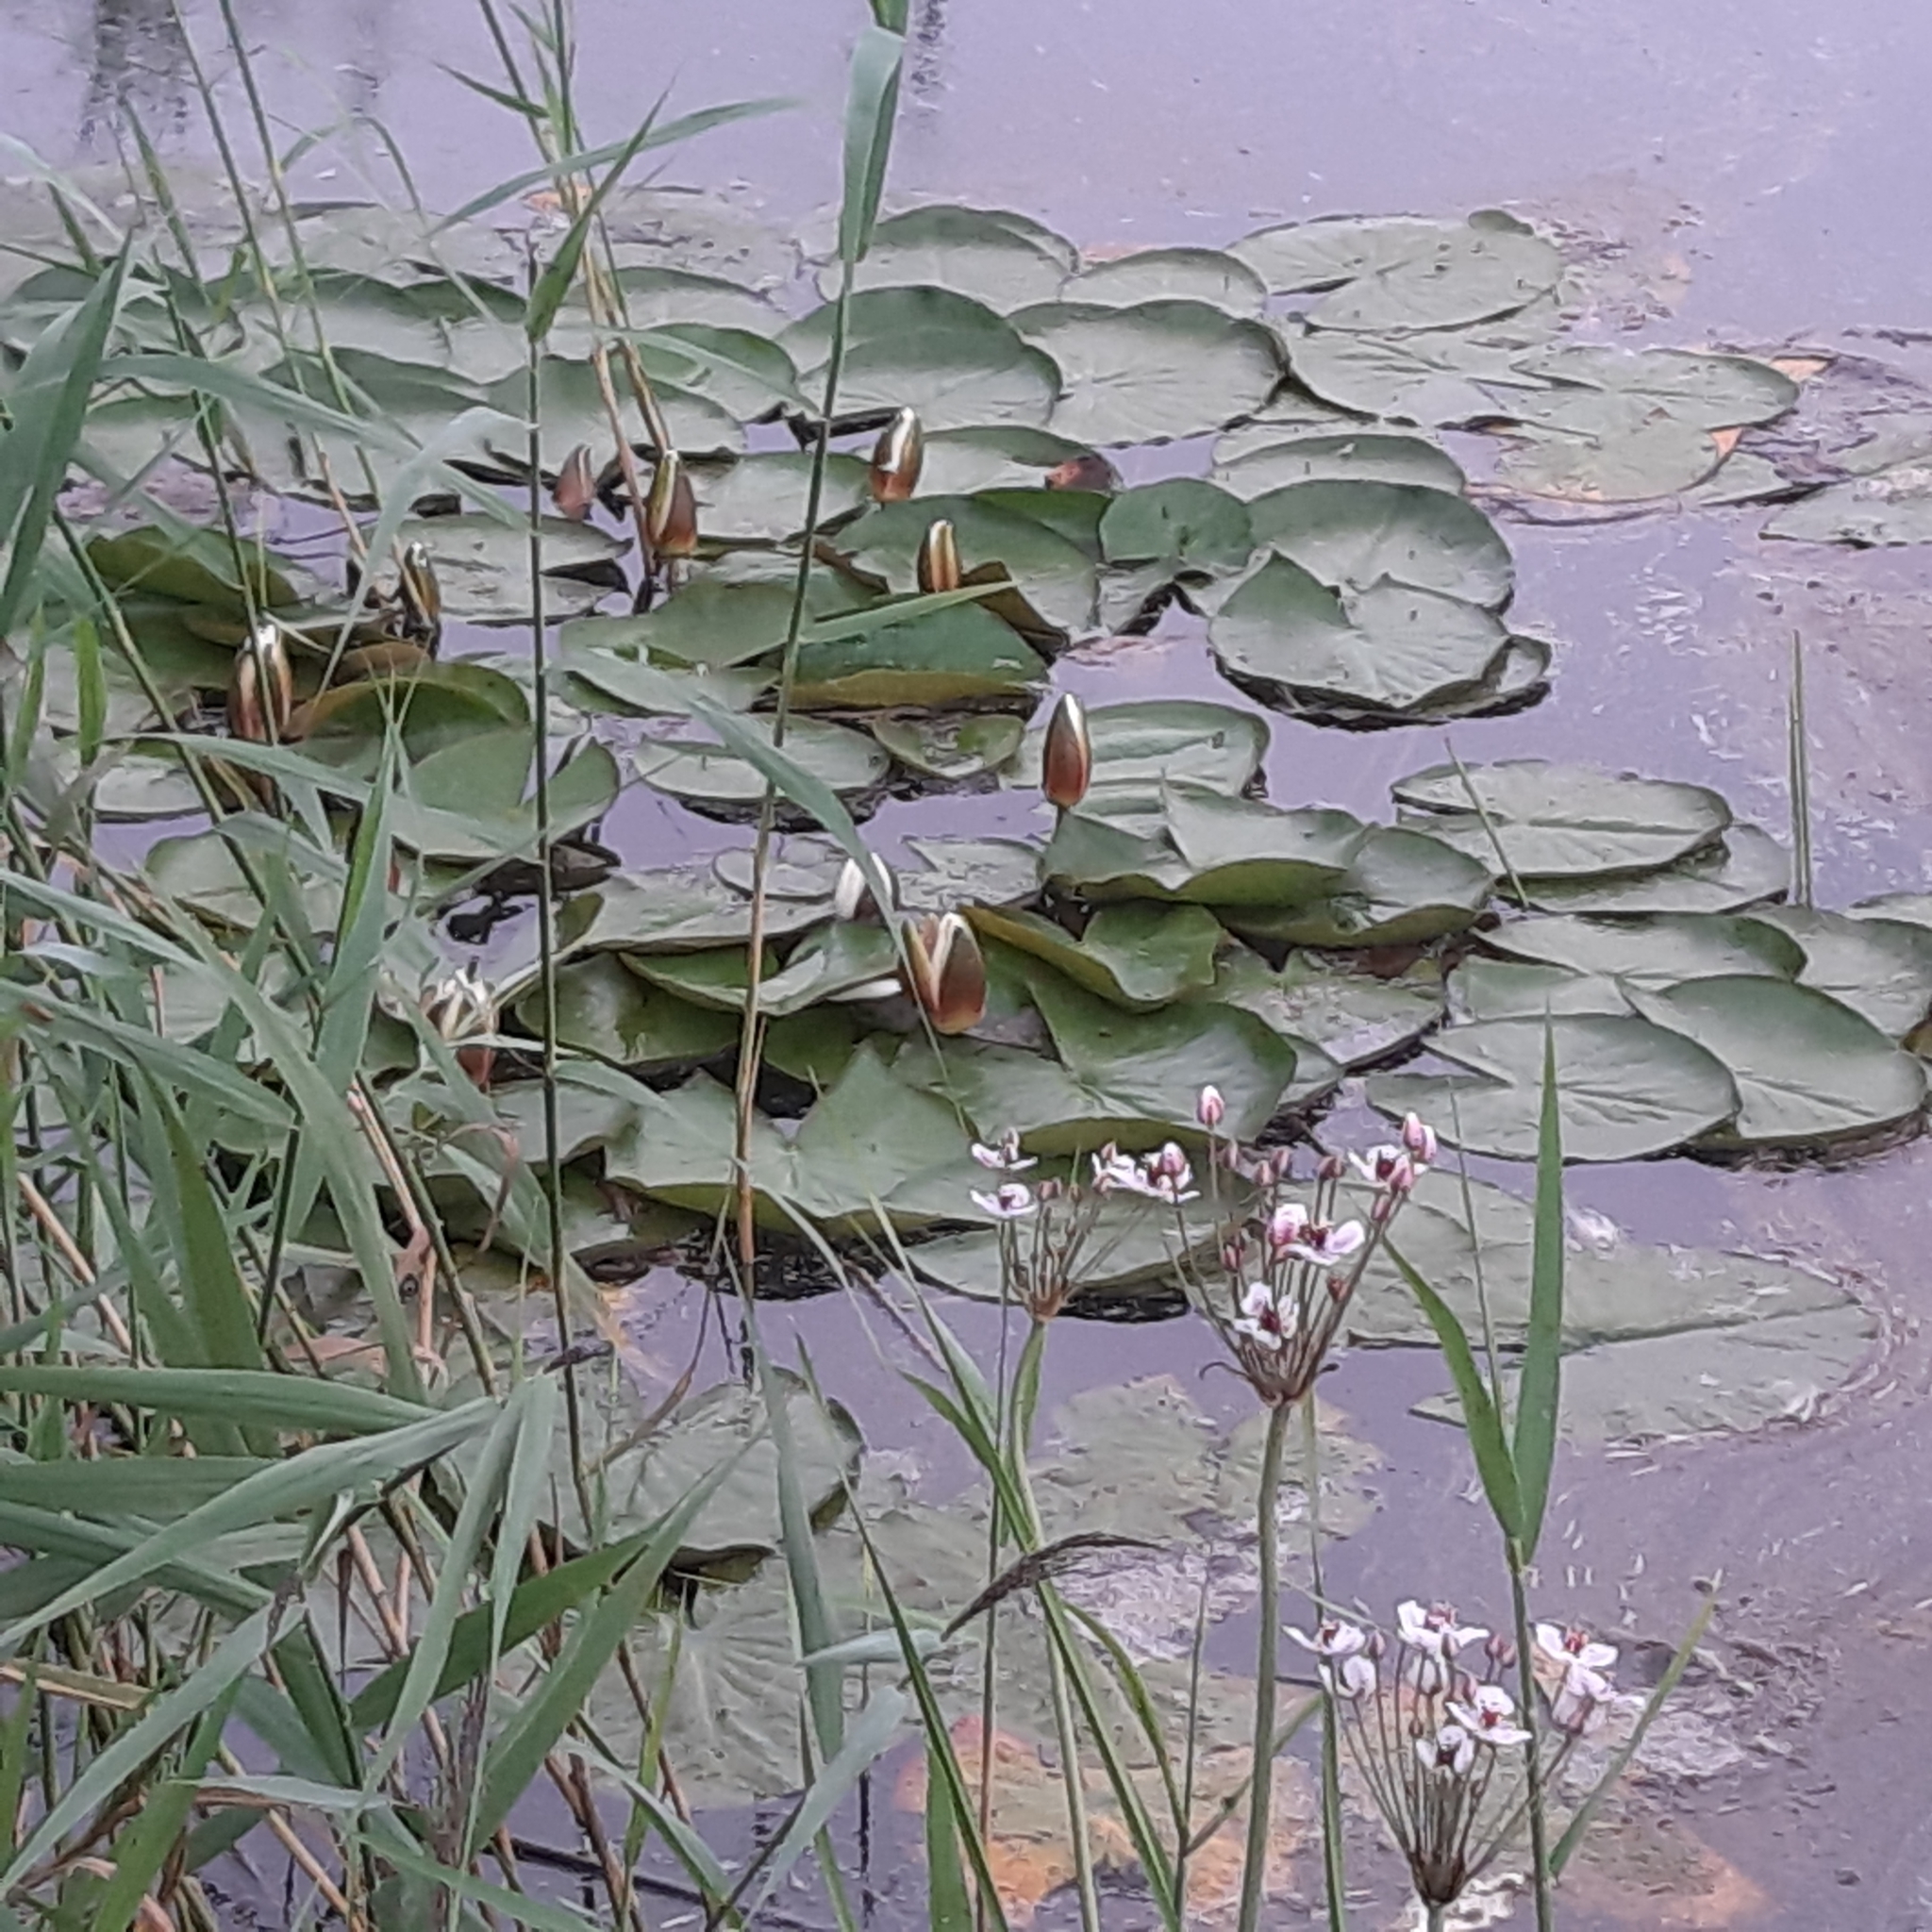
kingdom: Plantae
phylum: Tracheophyta
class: Magnoliopsida
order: Nymphaeales
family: Nymphaeaceae
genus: Nymphaea
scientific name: Nymphaea alba
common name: White water-lily
